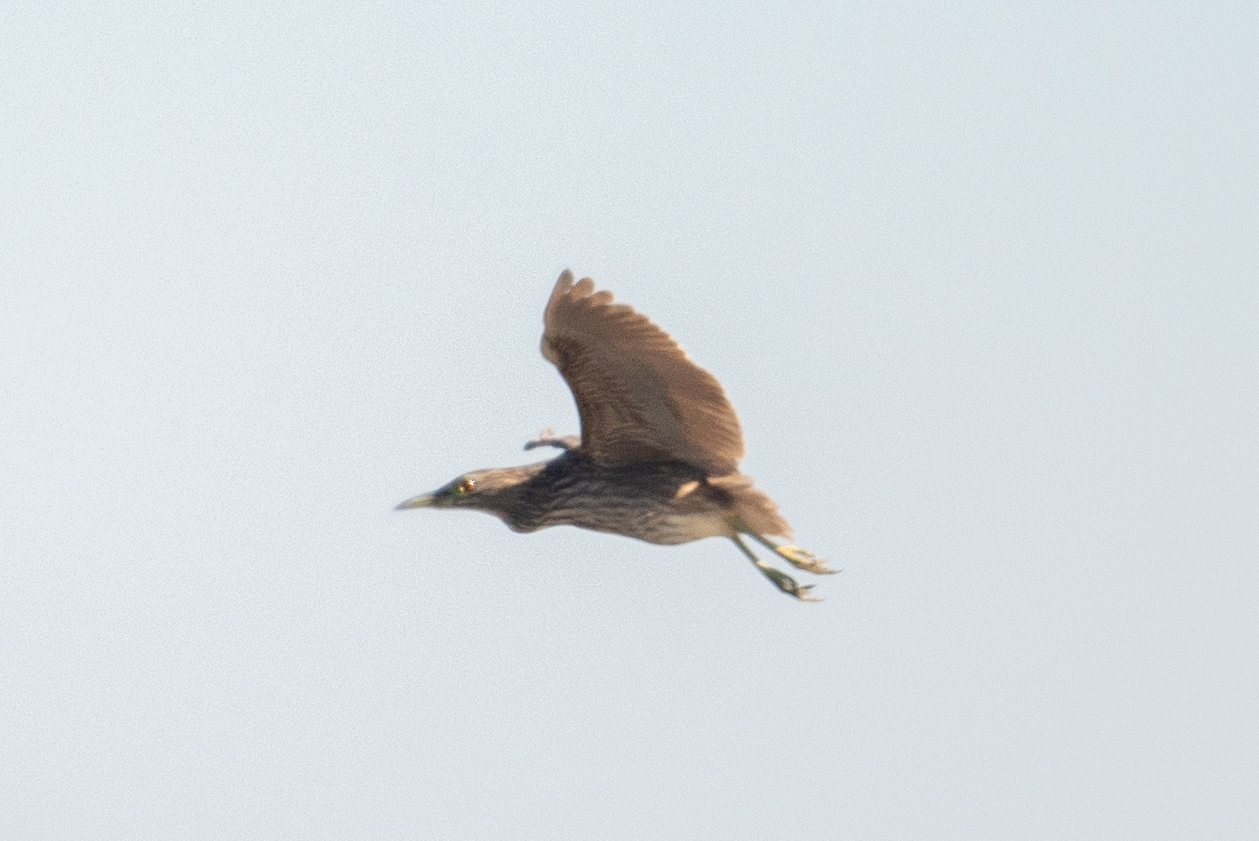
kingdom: Animalia
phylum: Chordata
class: Aves
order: Pelecaniformes
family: Ardeidae
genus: Nycticorax
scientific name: Nycticorax nycticorax
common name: Black-crowned night heron
